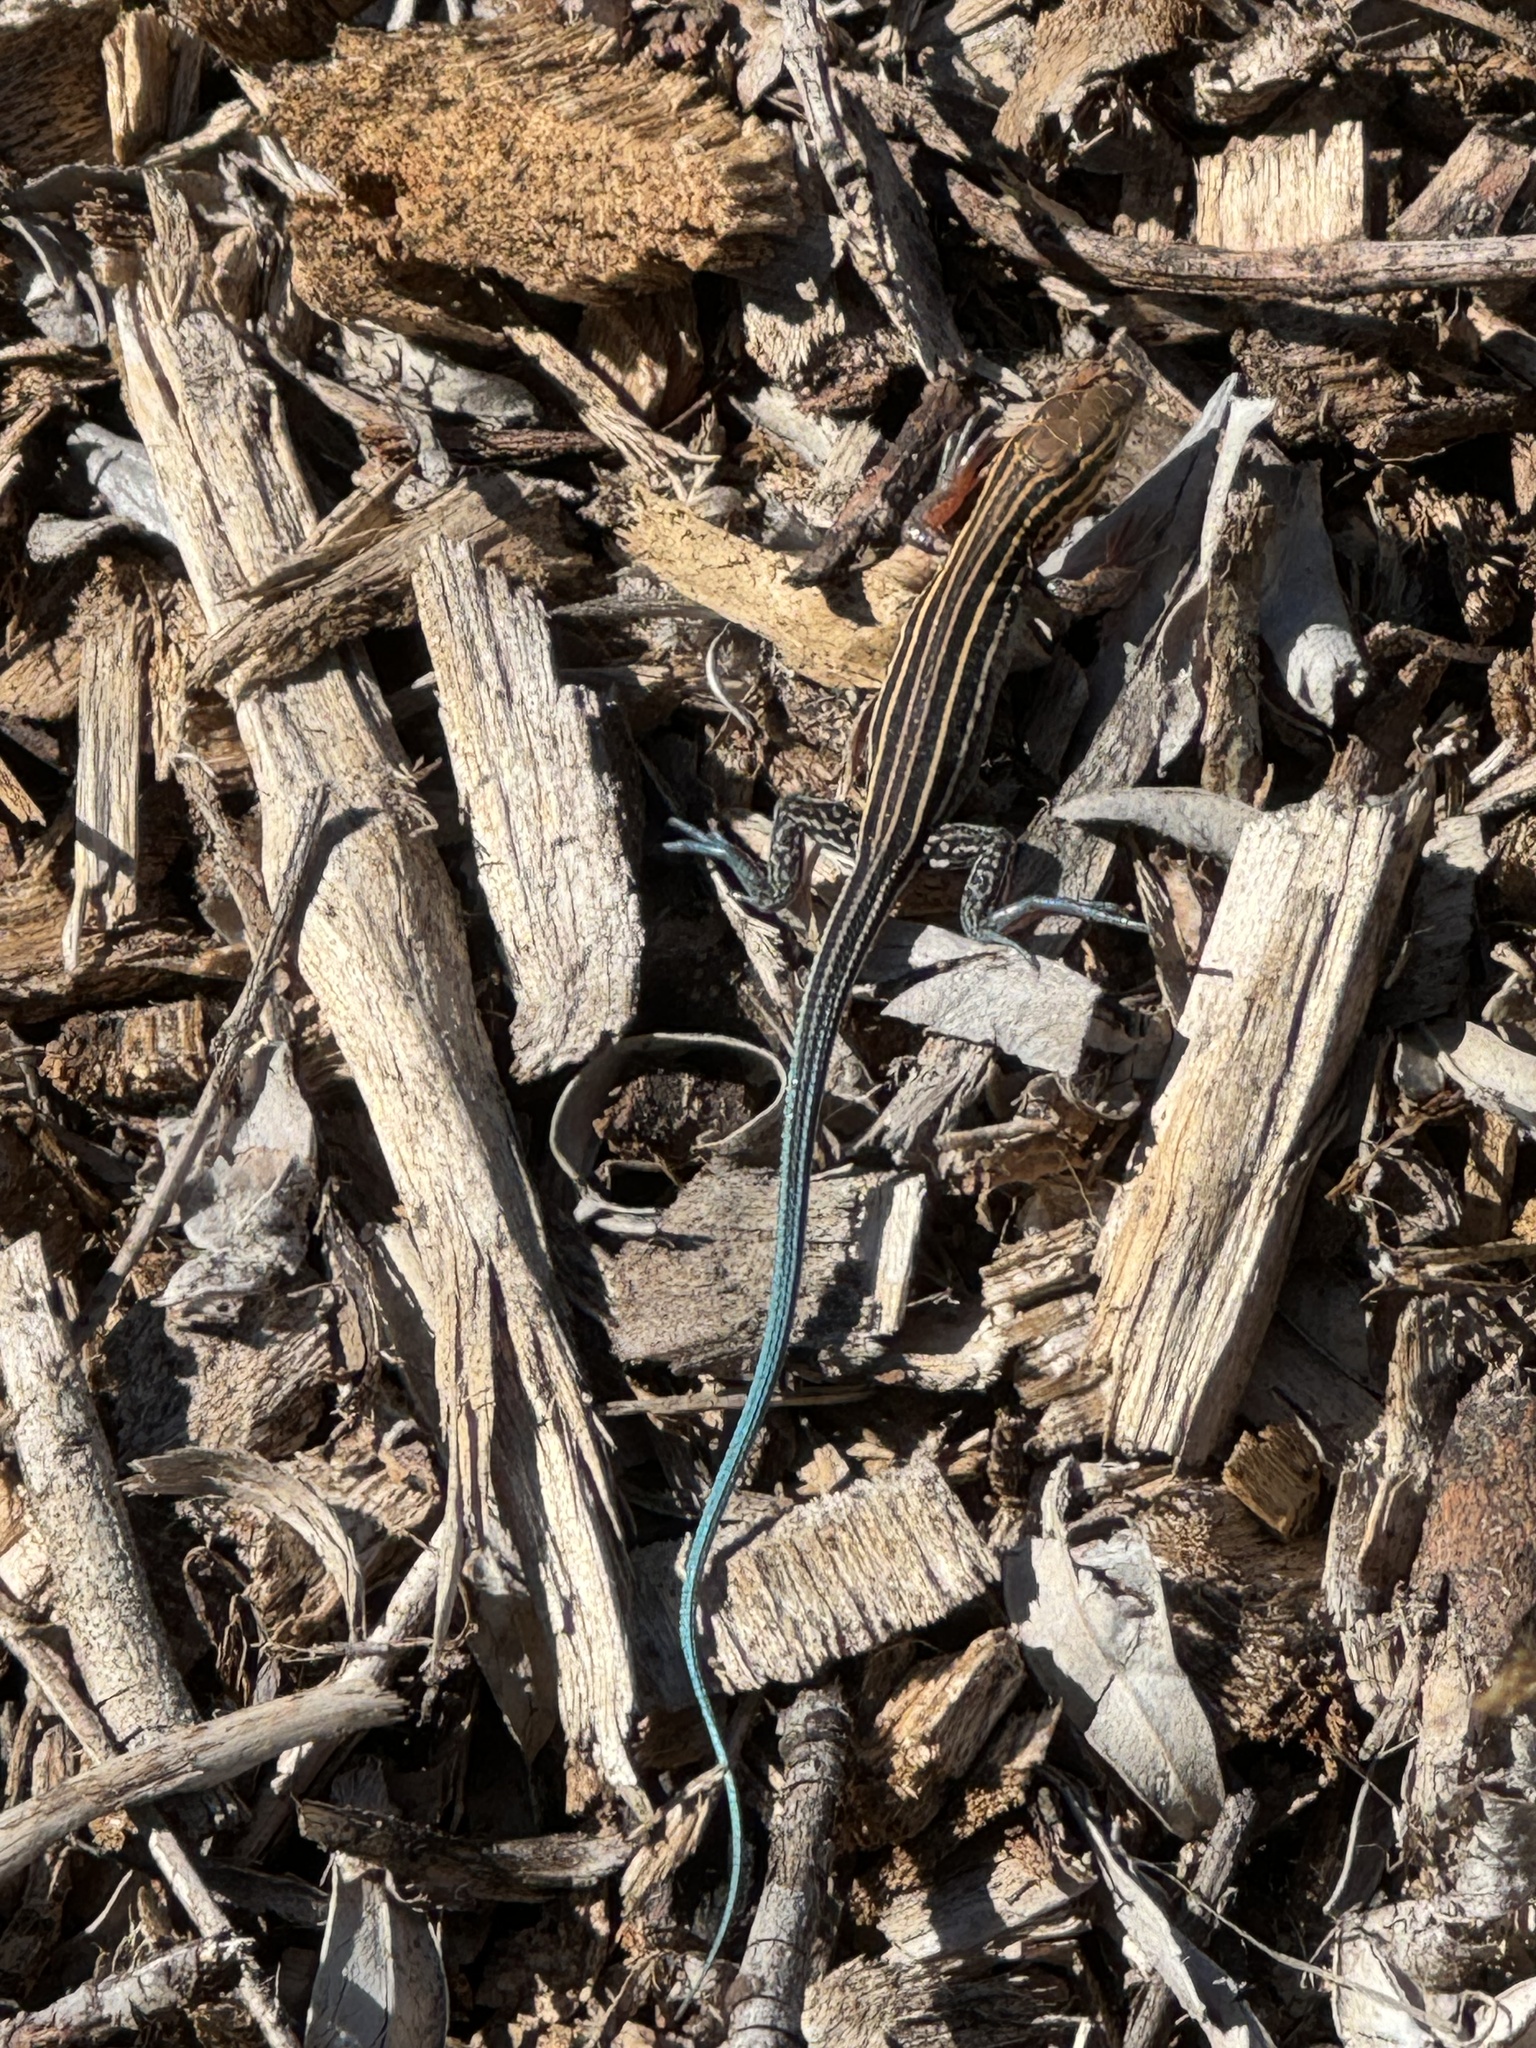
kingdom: Animalia
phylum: Chordata
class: Squamata
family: Teiidae
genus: Aspidoscelis
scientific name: Aspidoscelis hyperythrus
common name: Orange-throated race-runner
